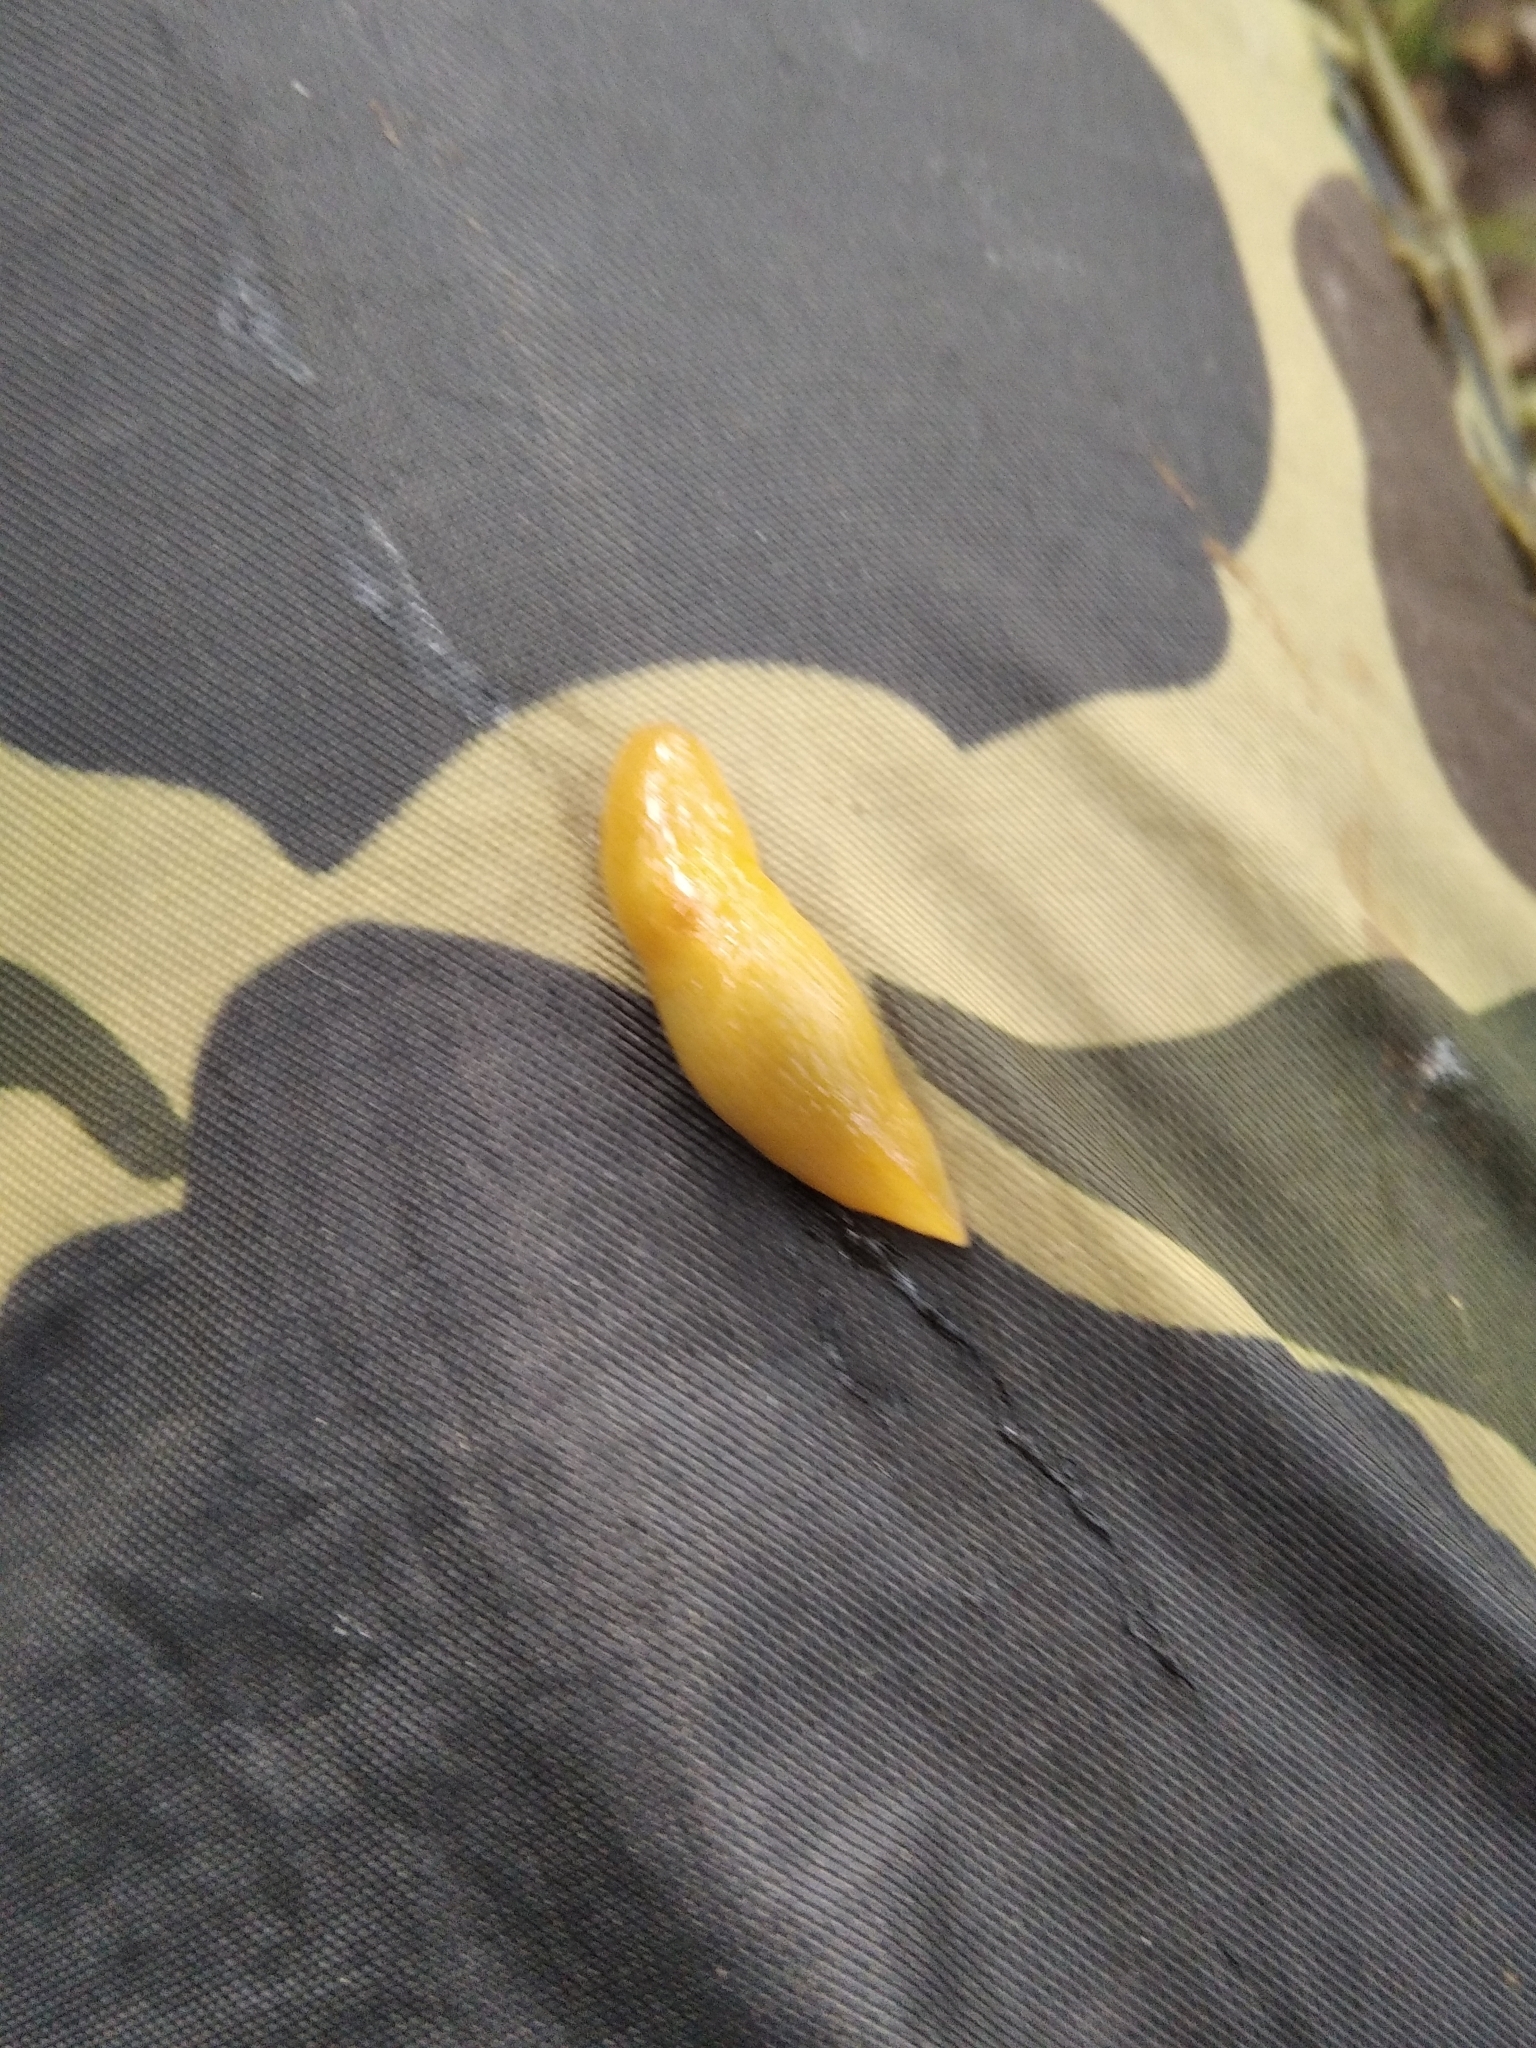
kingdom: Animalia
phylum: Mollusca
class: Gastropoda
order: Stylommatophora
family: Limacidae
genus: Malacolimax
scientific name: Malacolimax tenellus
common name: Lemon slug
